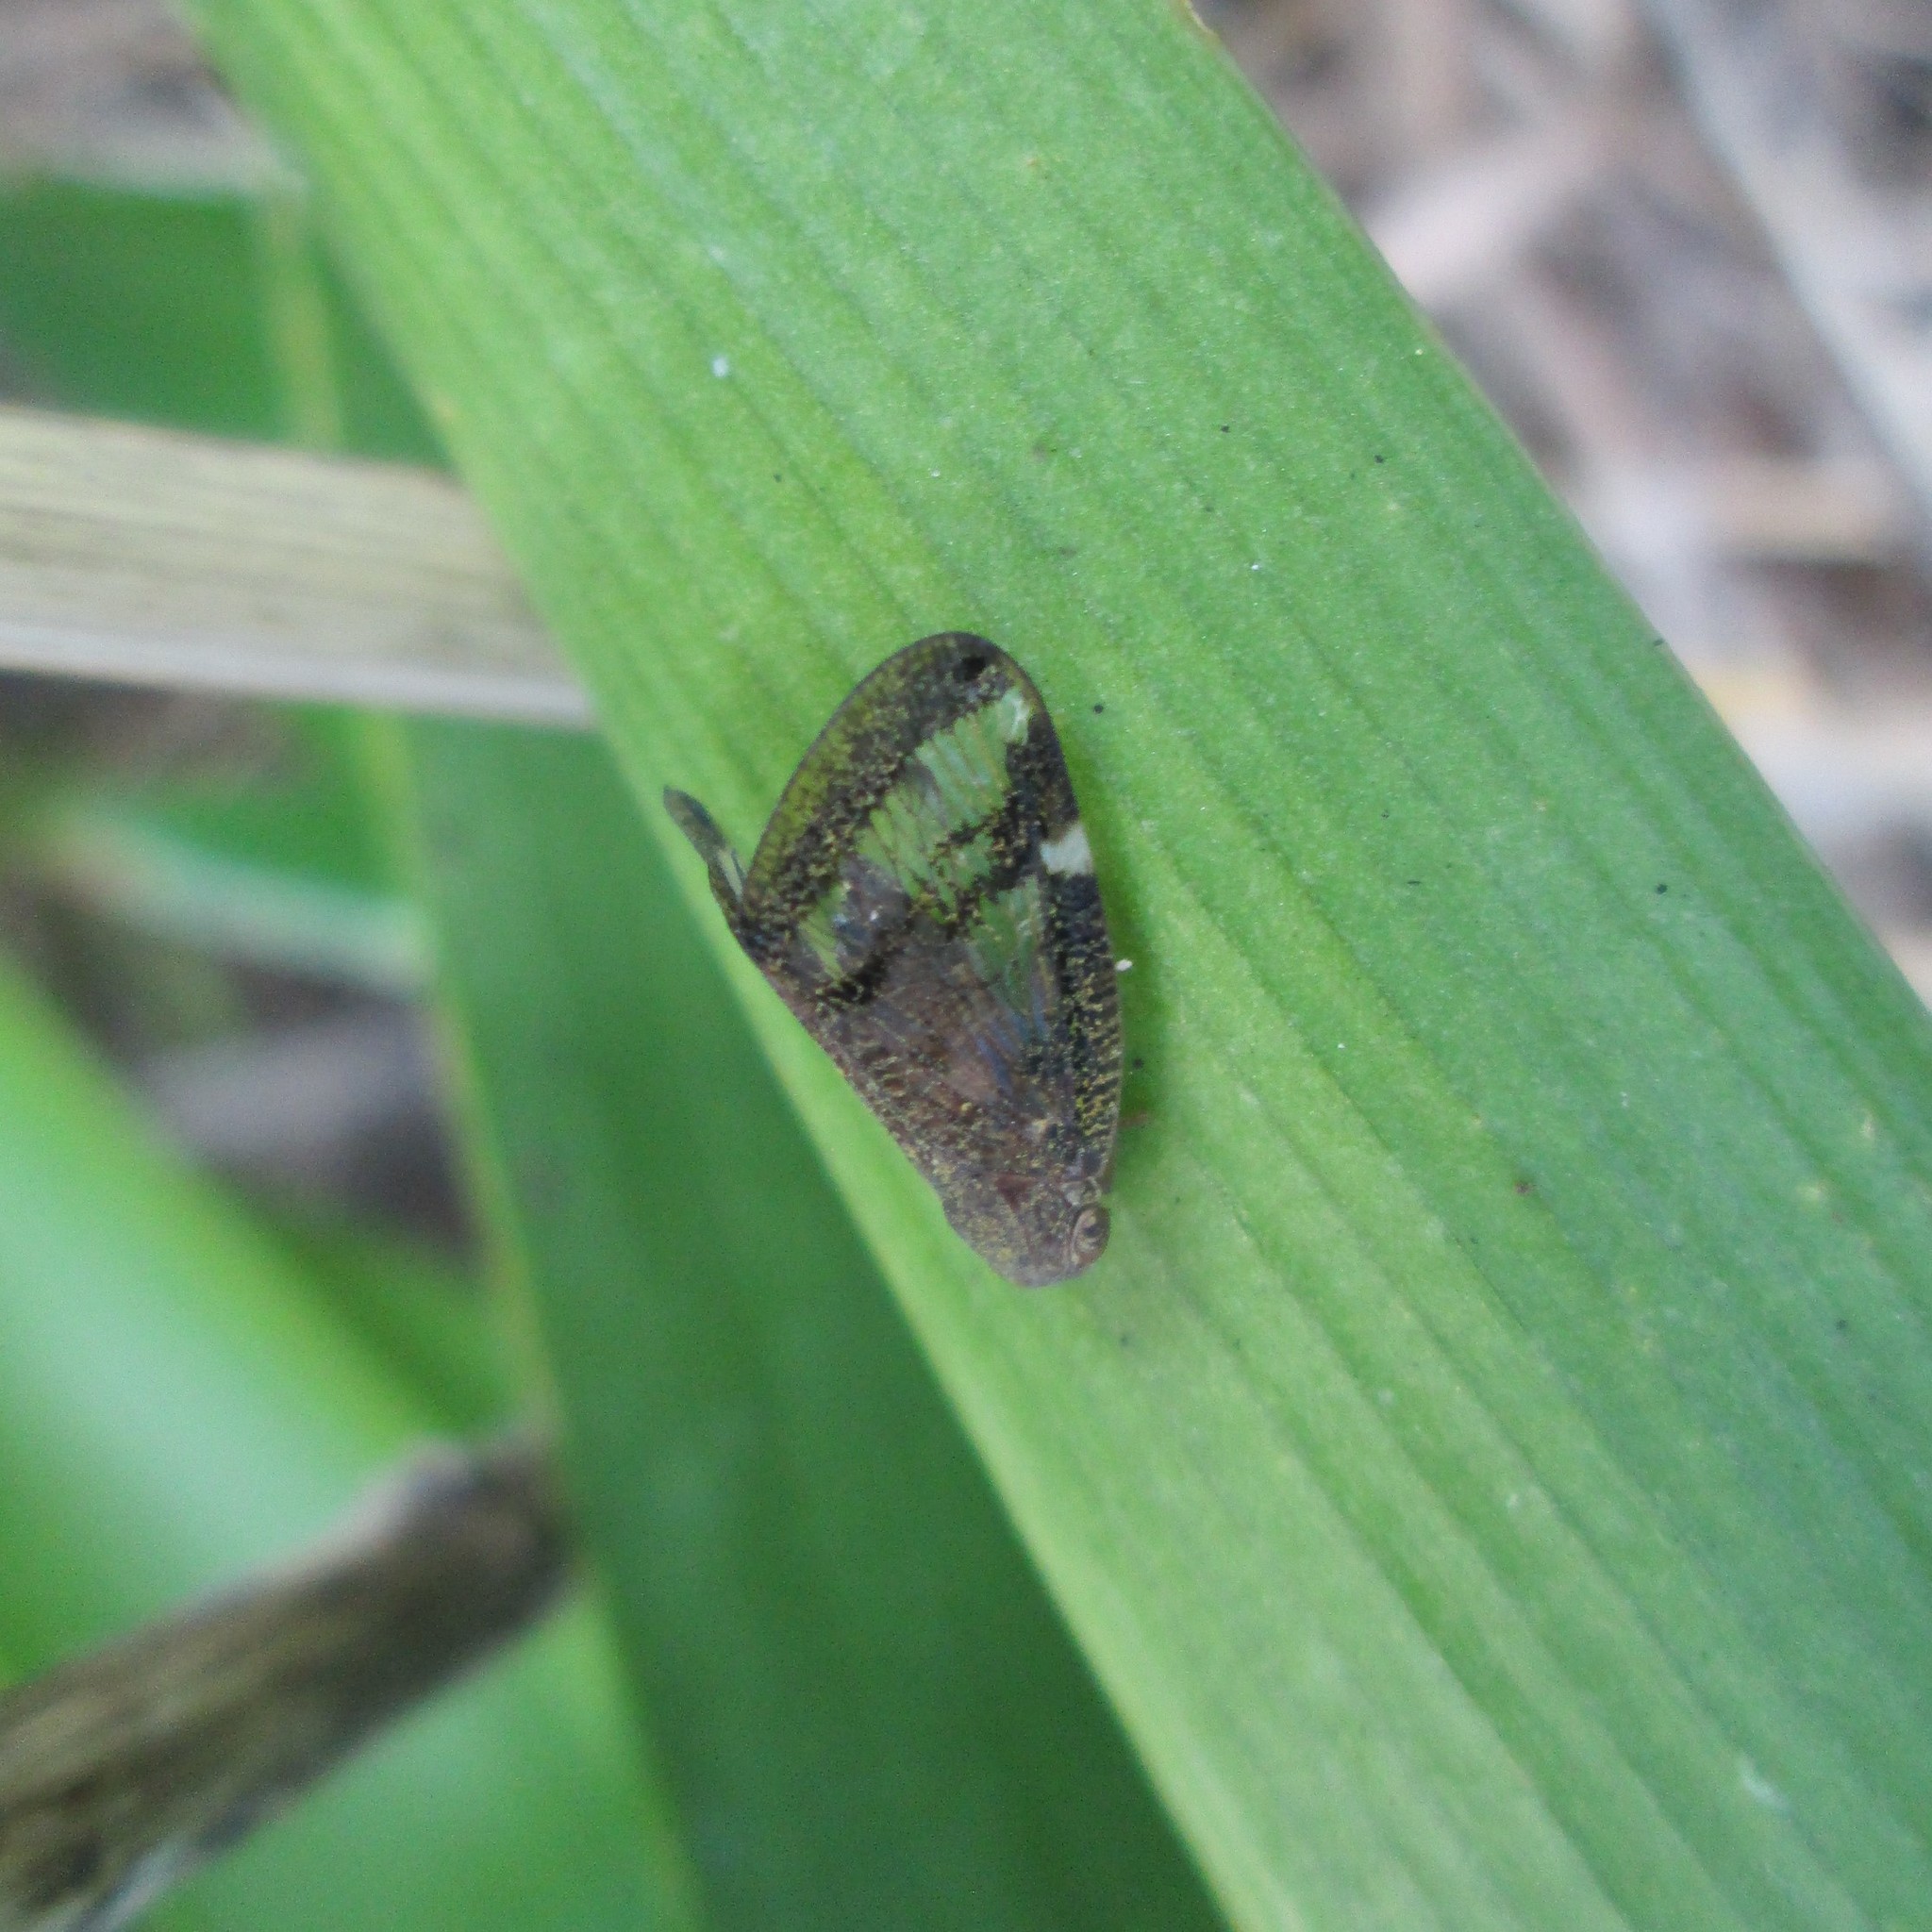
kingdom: Animalia
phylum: Arthropoda
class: Insecta
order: Hemiptera
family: Ricaniidae
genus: Scolypopa
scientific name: Scolypopa australis
